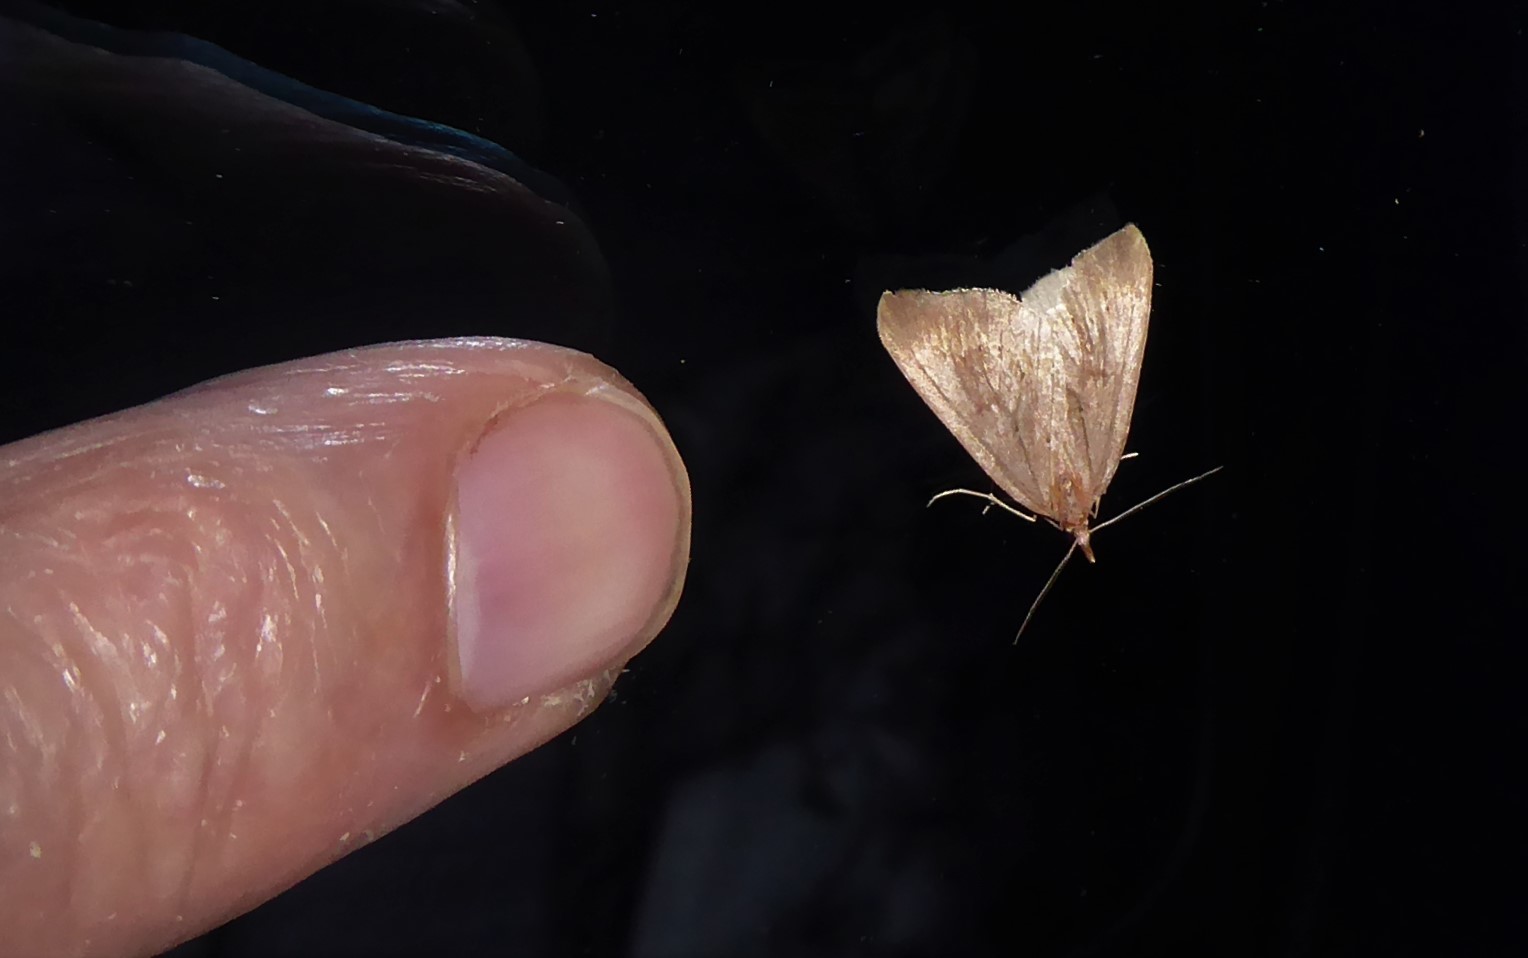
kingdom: Animalia
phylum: Arthropoda
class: Insecta
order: Lepidoptera
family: Geometridae
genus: Xanthorhoe
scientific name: Xanthorhoe occulta
